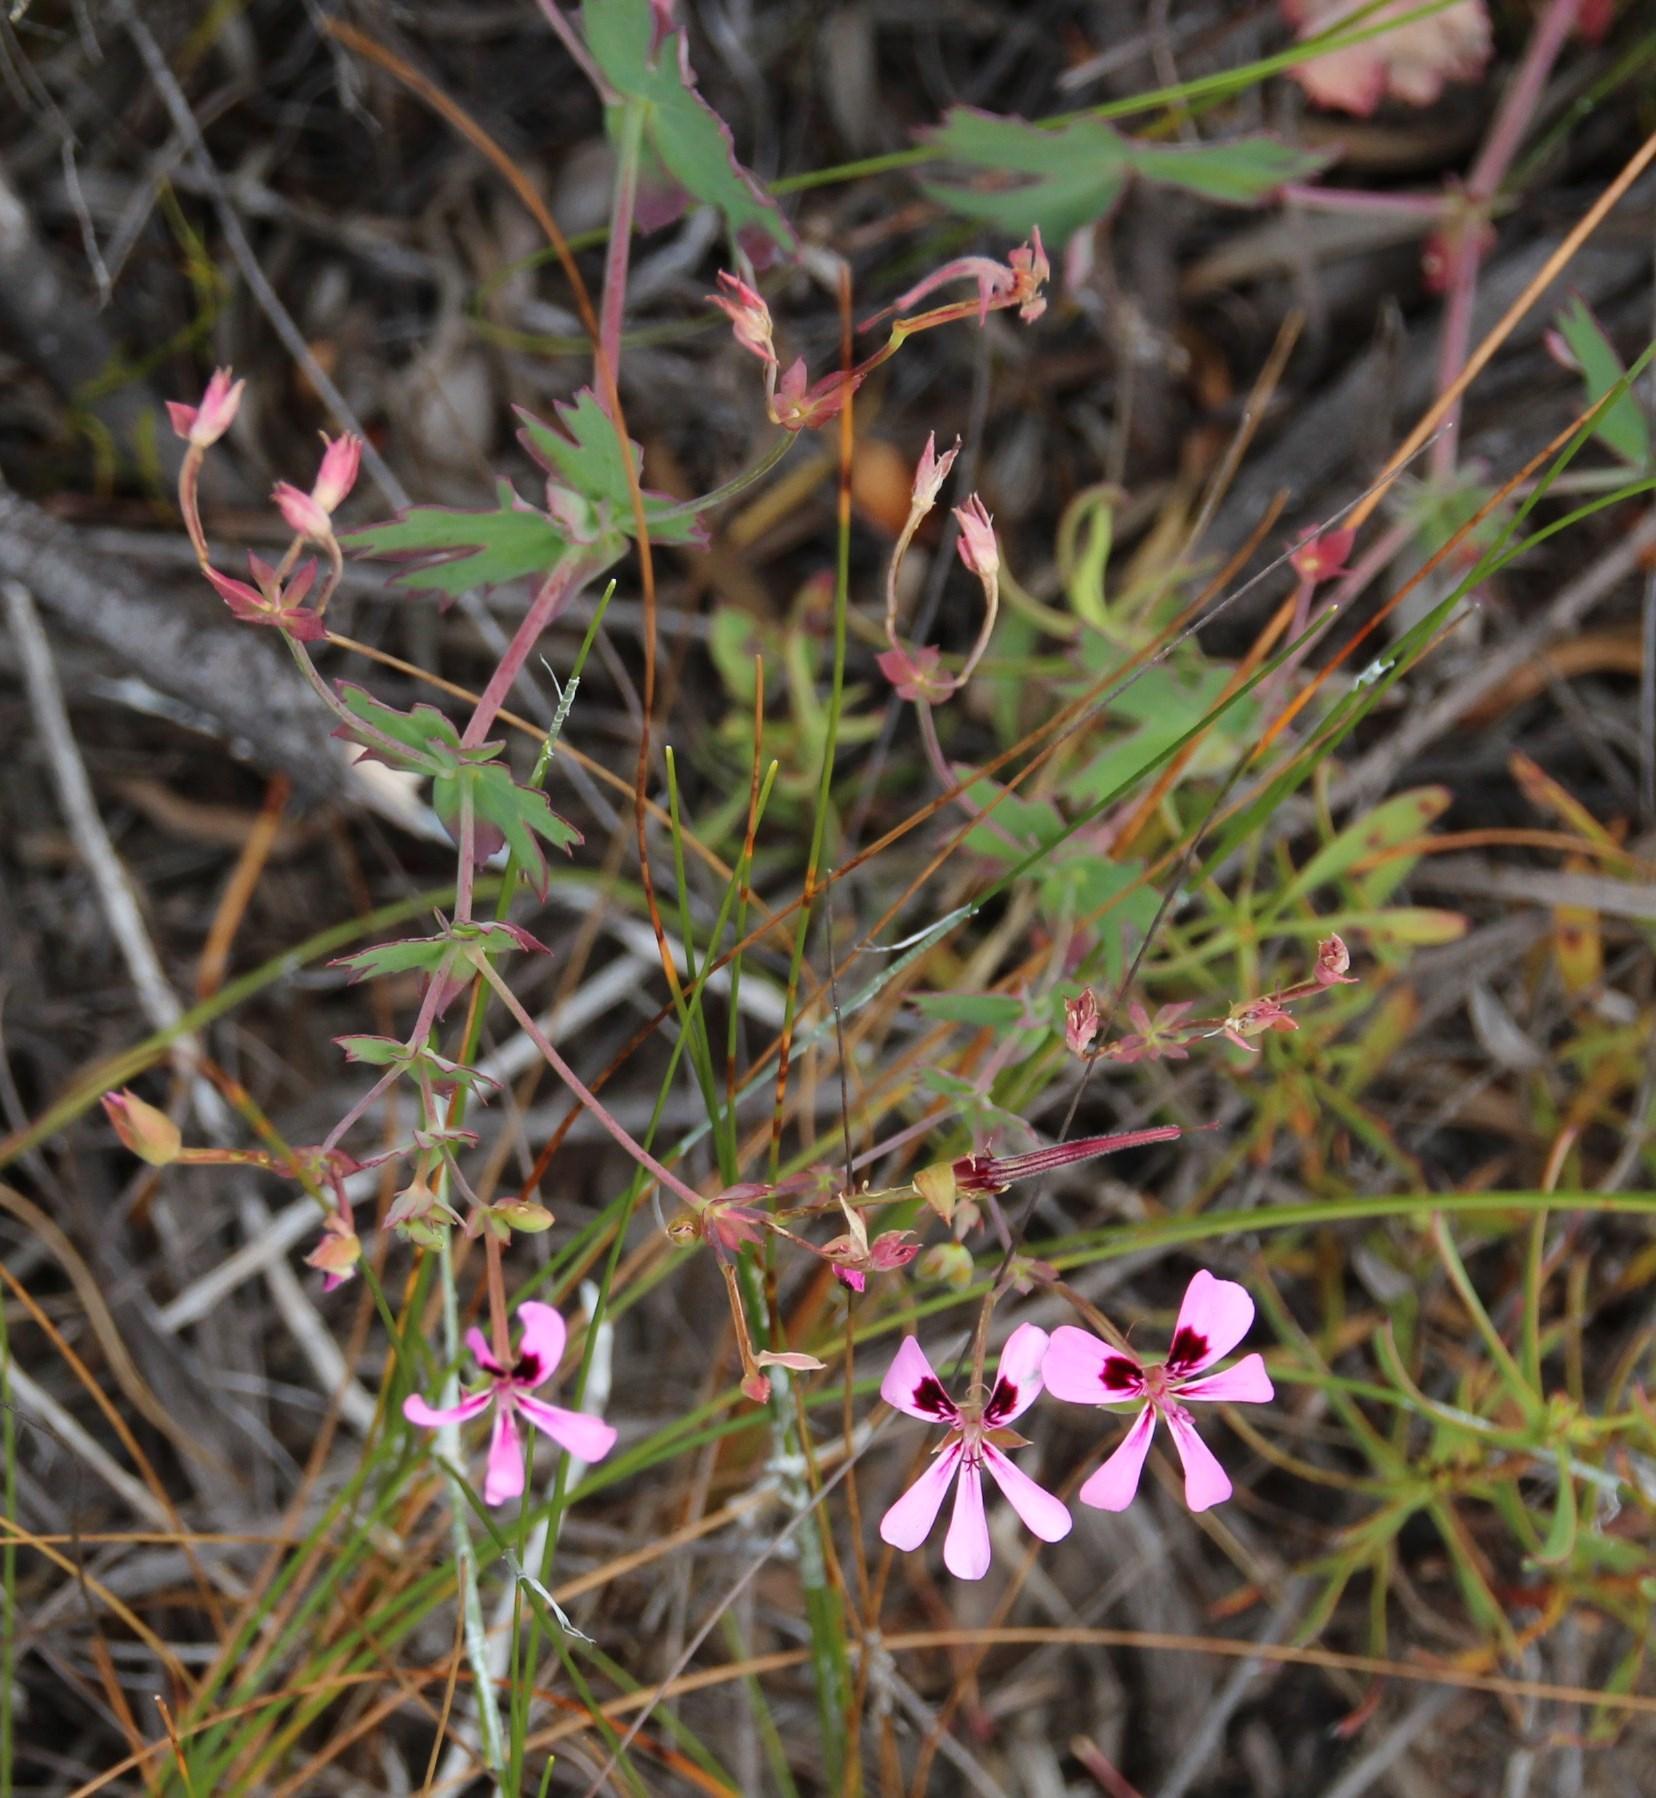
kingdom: Plantae
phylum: Tracheophyta
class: Magnoliopsida
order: Geraniales
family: Geraniaceae
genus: Pelargonium
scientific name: Pelargonium patulum
